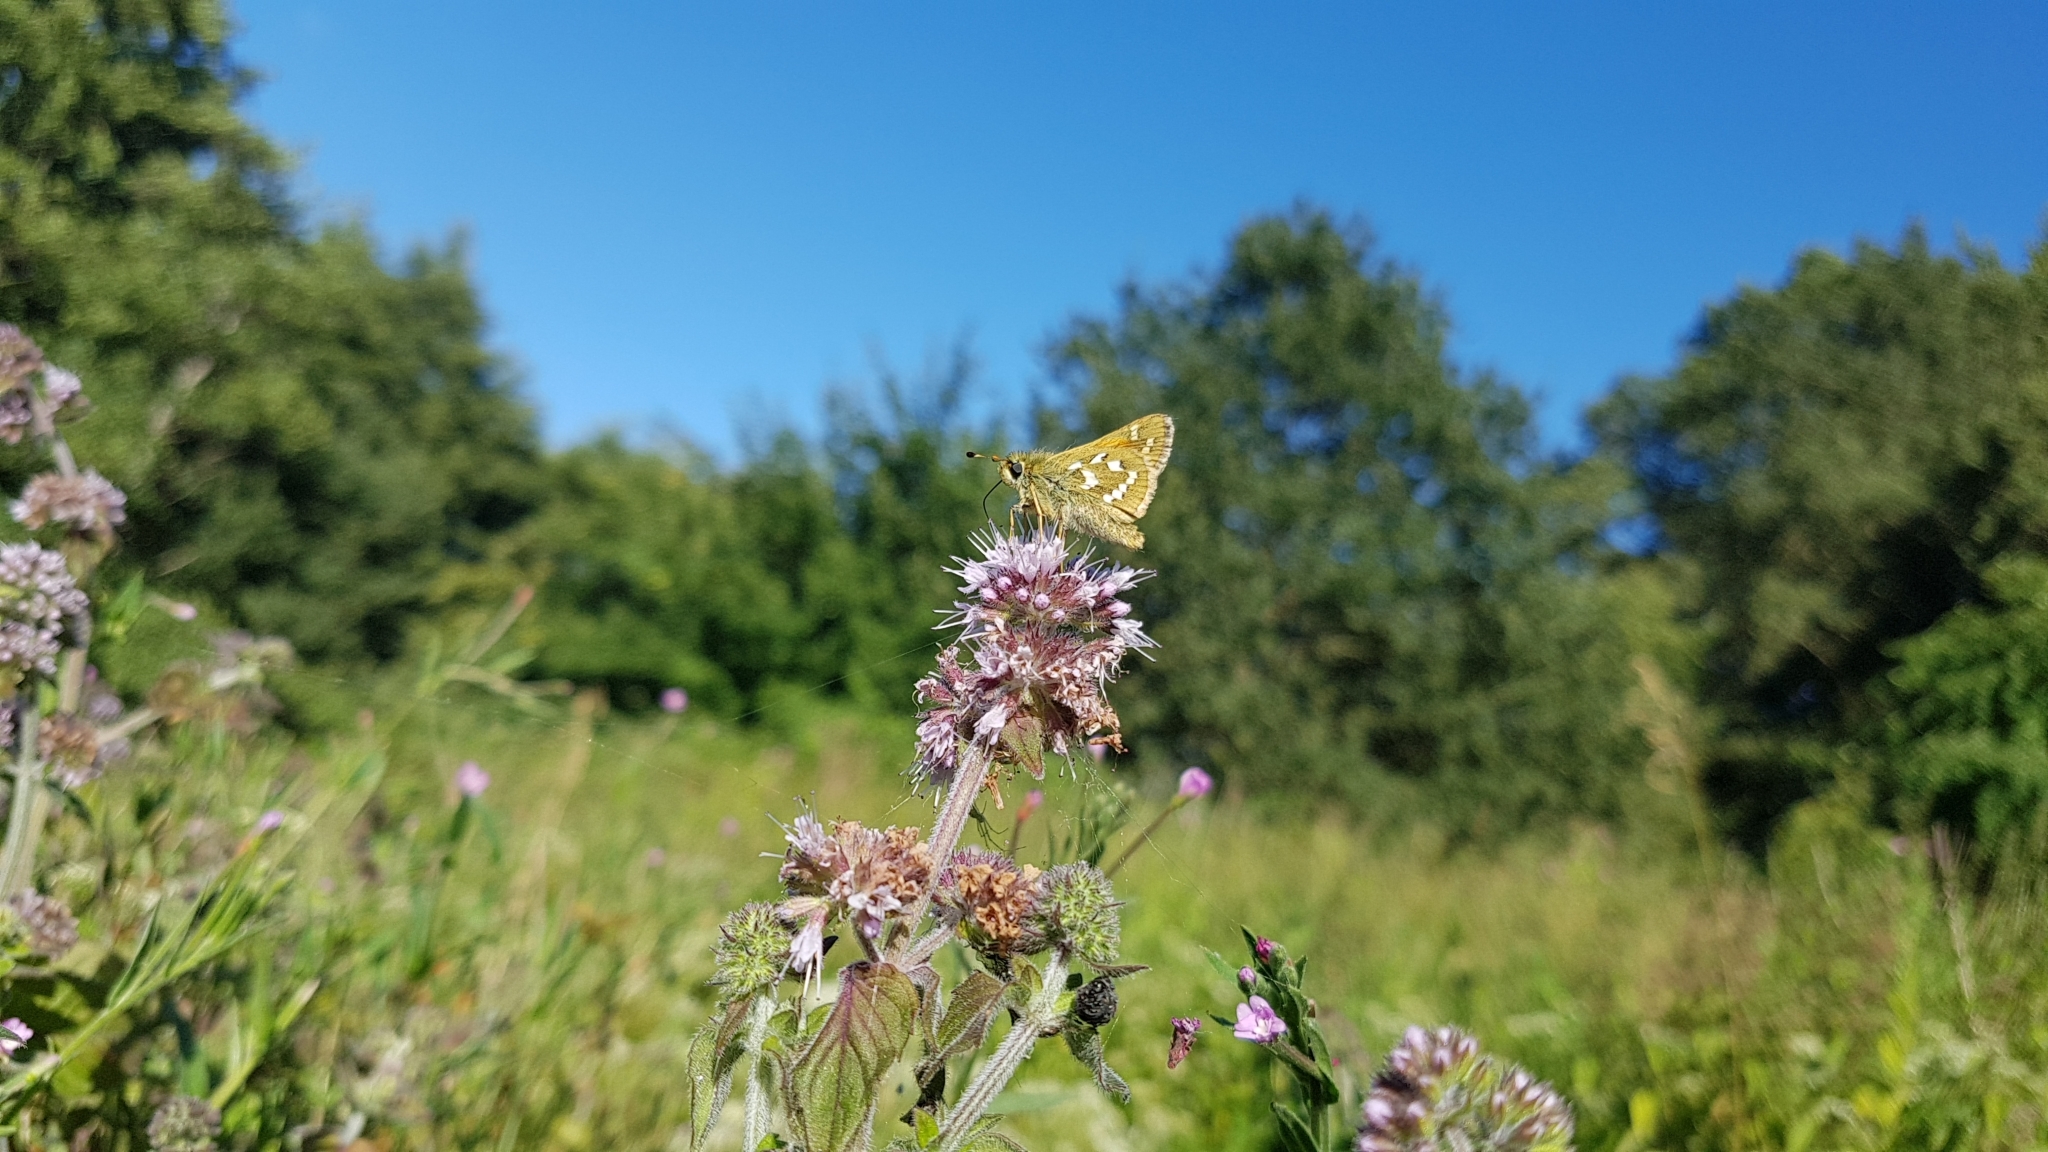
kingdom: Animalia
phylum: Arthropoda
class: Insecta
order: Lepidoptera
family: Hesperiidae
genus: Hesperia
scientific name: Hesperia comma
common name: Common branded skipper
